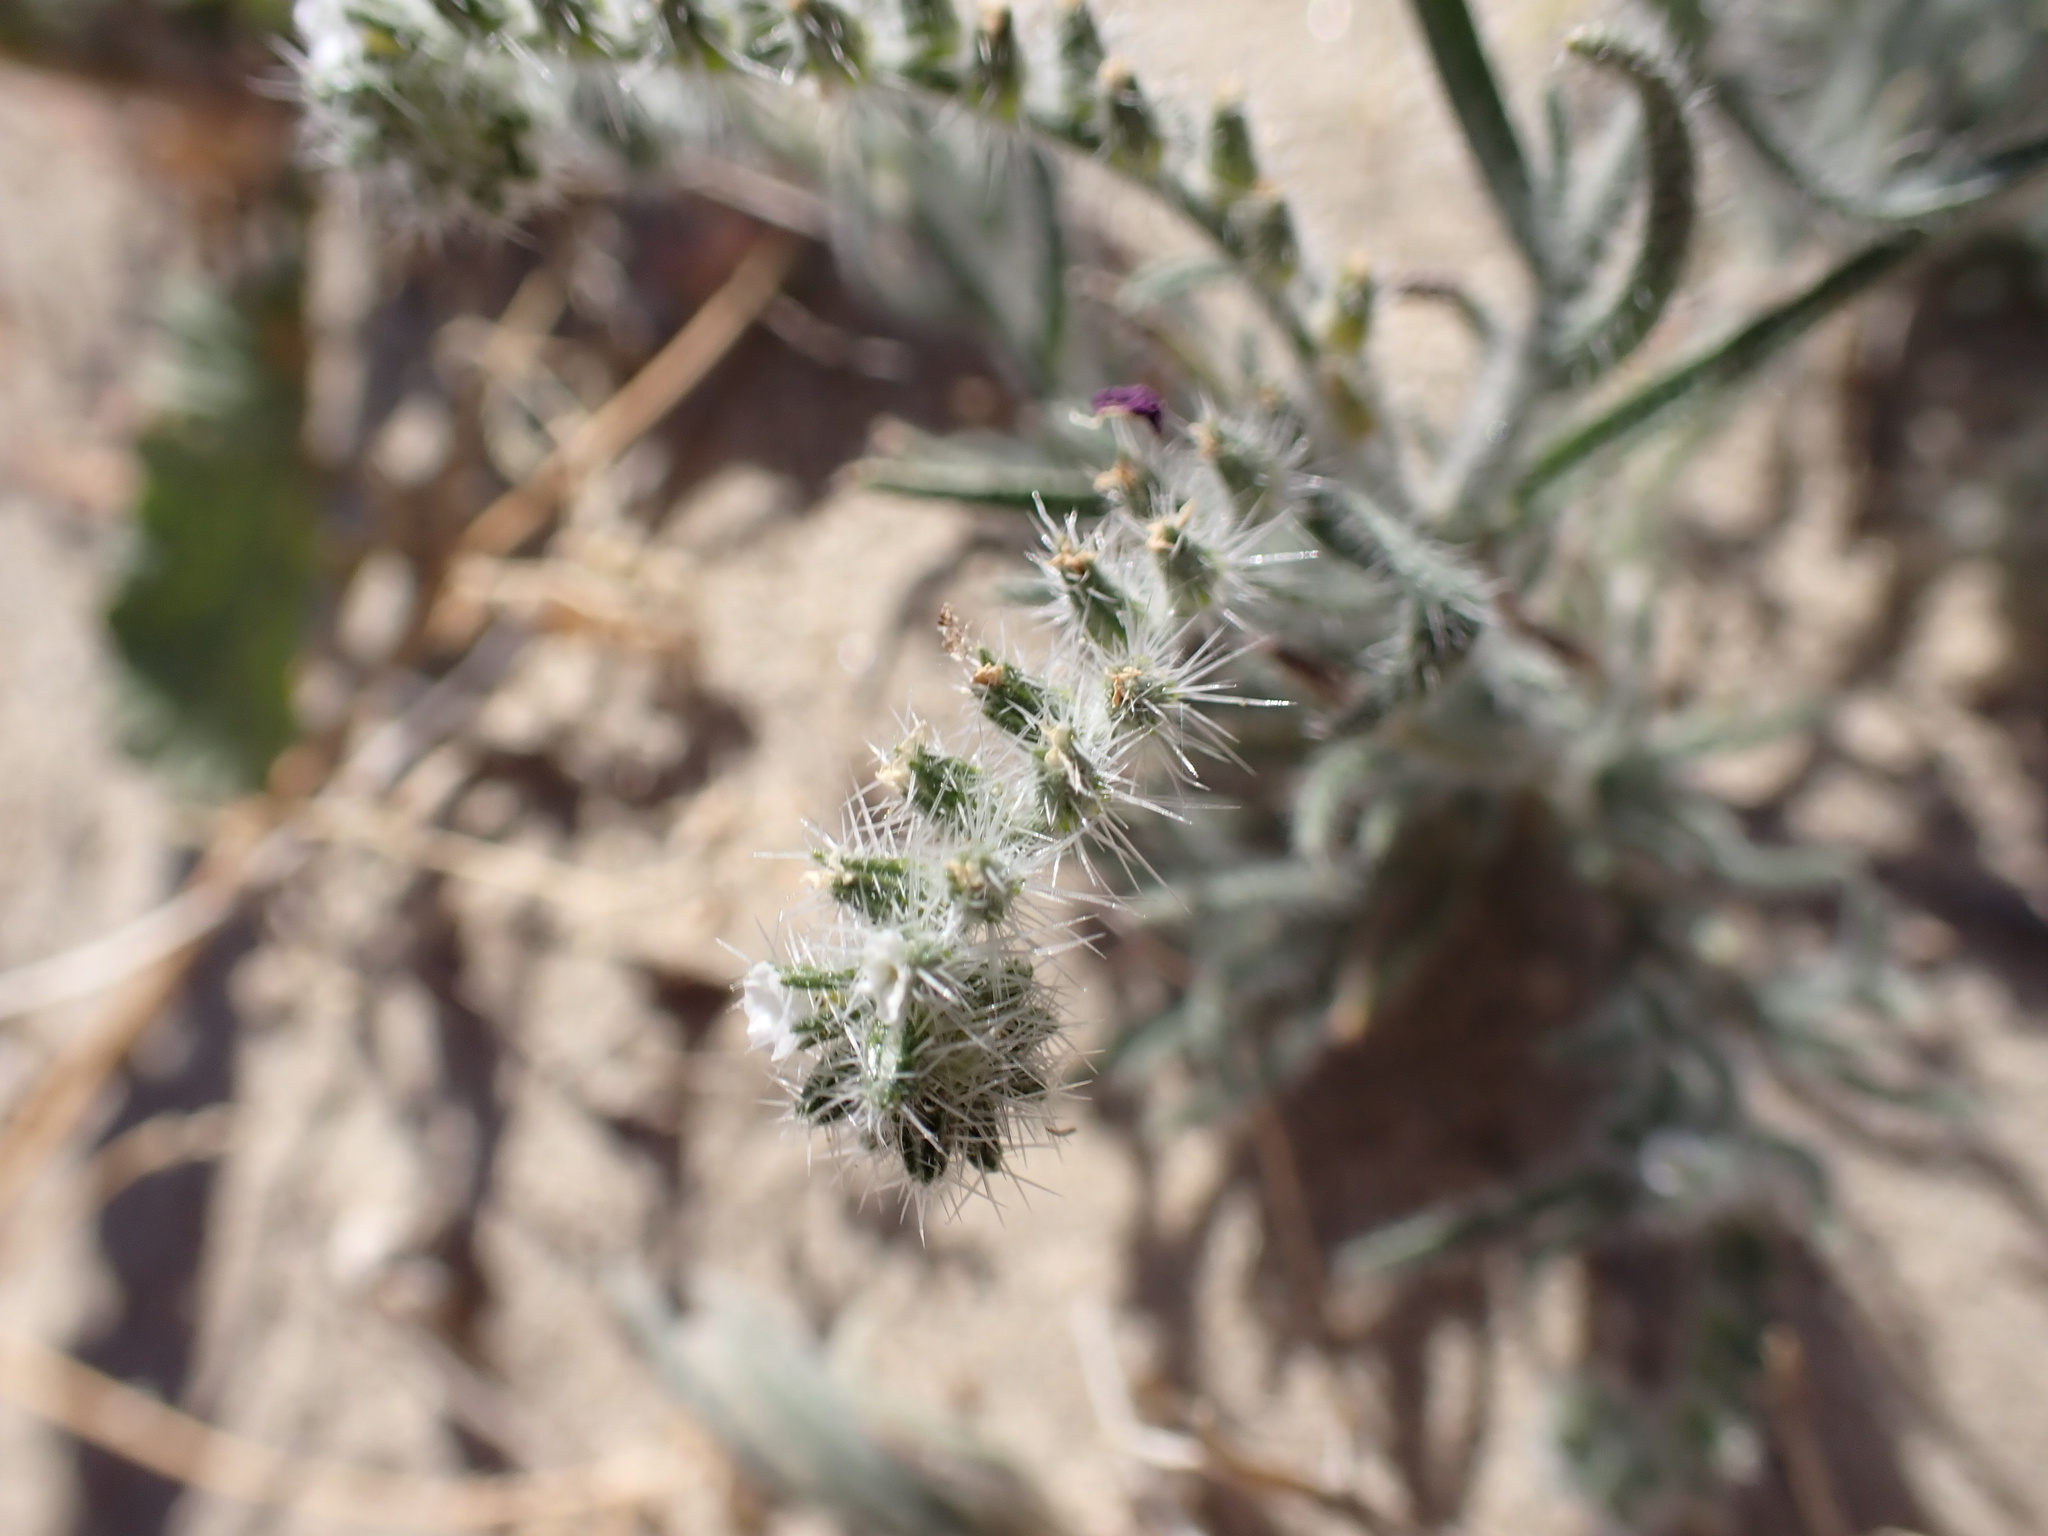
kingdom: Plantae
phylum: Tracheophyta
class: Magnoliopsida
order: Boraginales
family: Boraginaceae
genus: Johnstonella
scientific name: Johnstonella angustifolia
